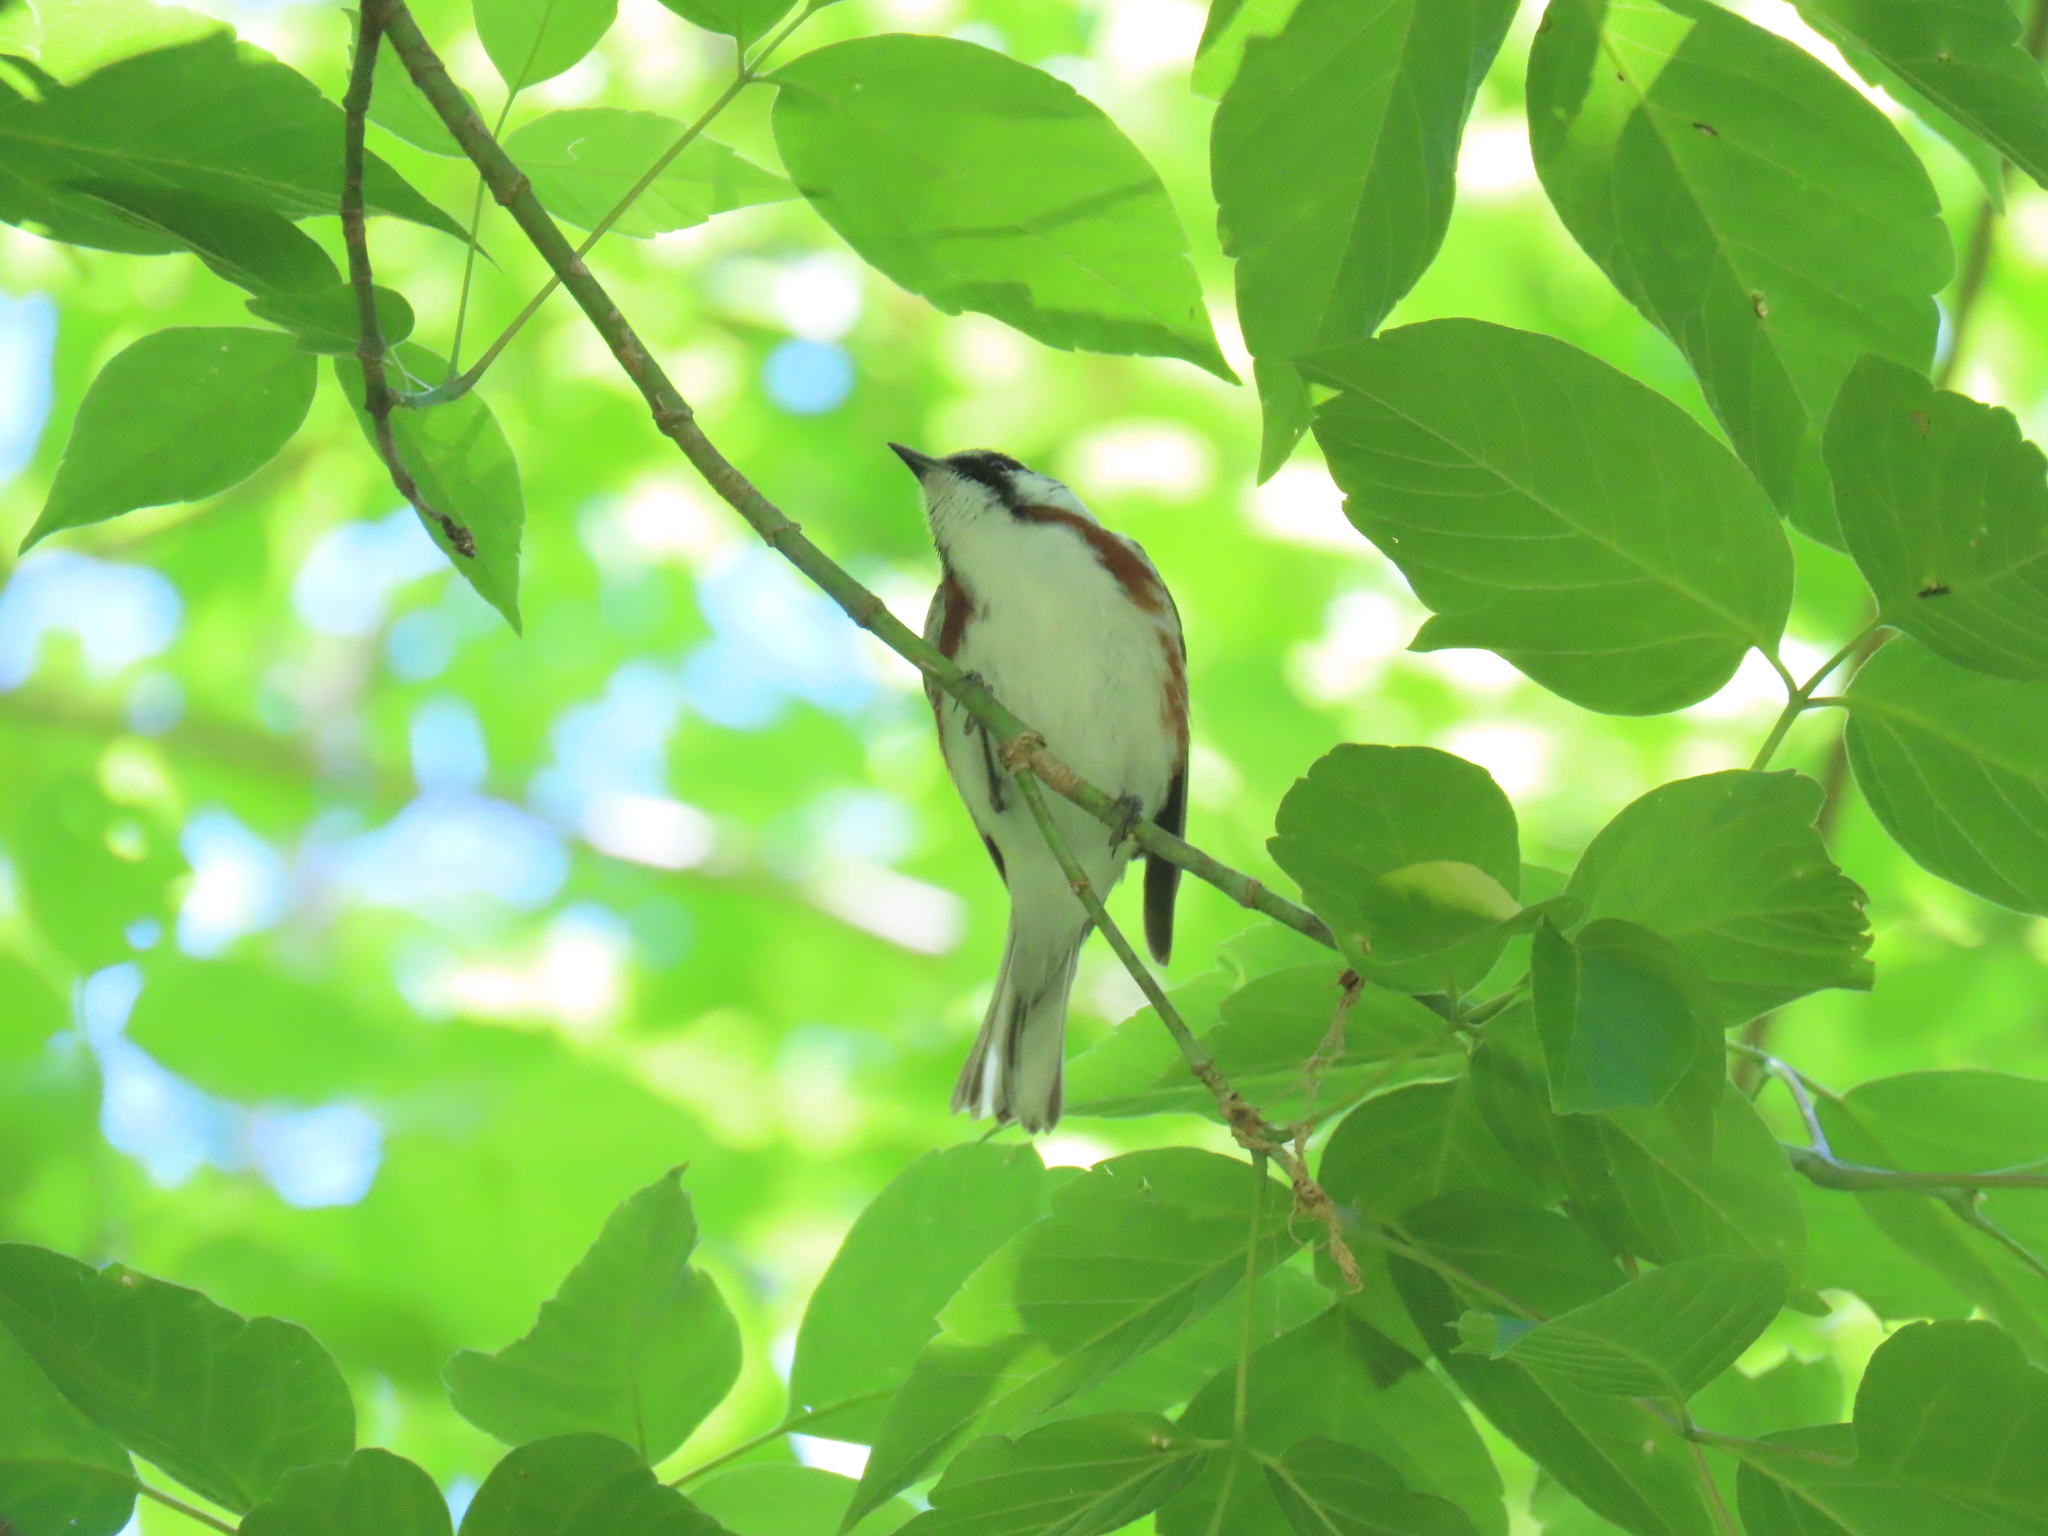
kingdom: Animalia
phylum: Chordata
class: Aves
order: Passeriformes
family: Parulidae
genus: Setophaga
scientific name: Setophaga pensylvanica
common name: Chestnut-sided warbler
